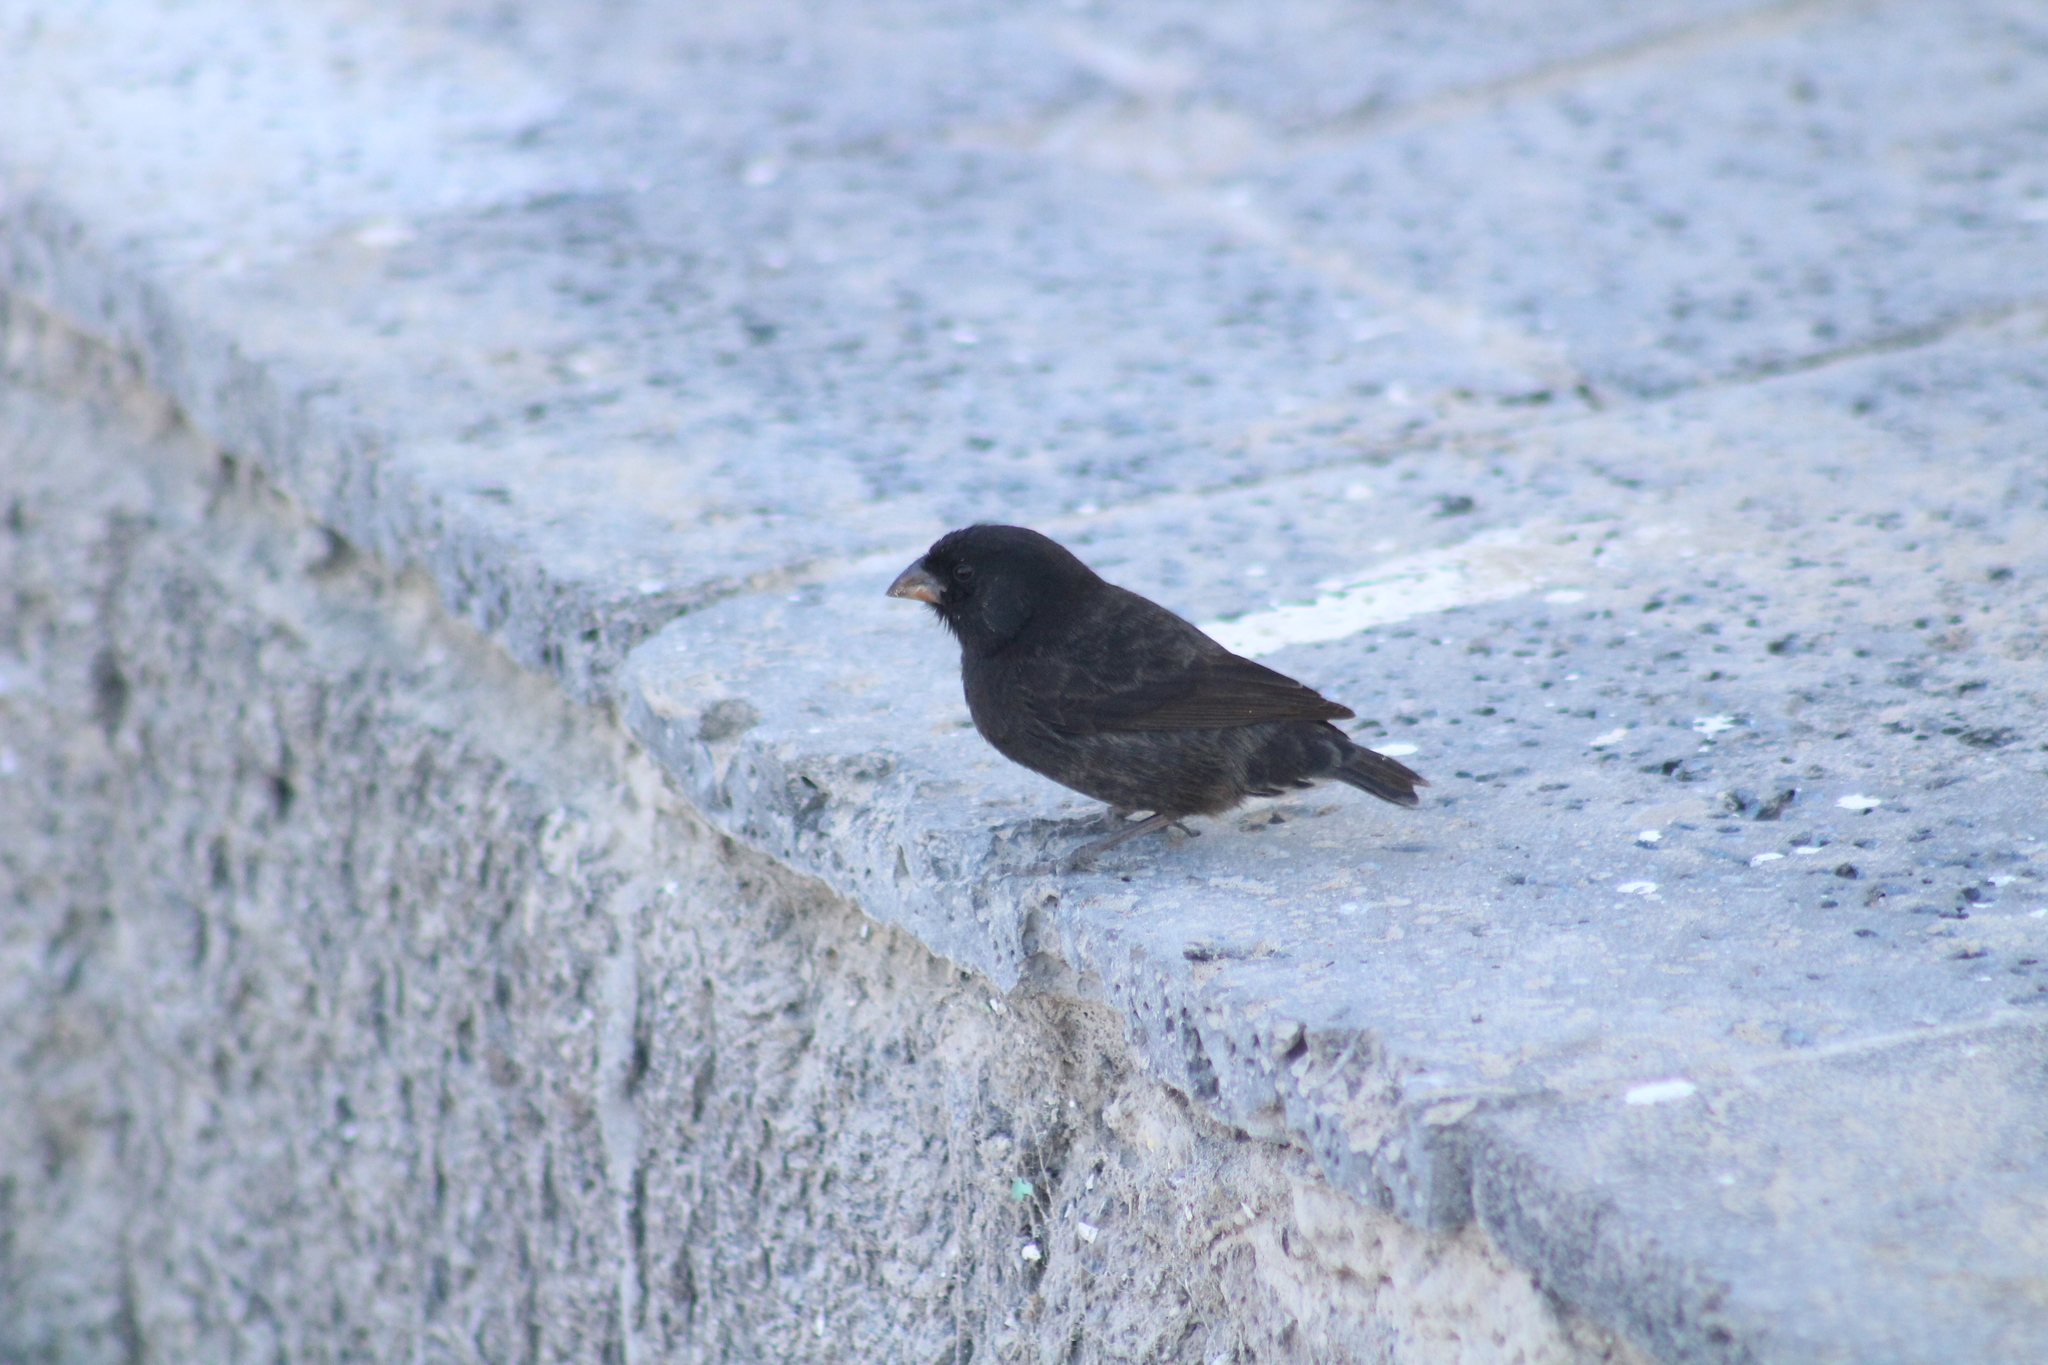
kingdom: Animalia
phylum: Chordata
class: Aves
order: Passeriformes
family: Thraupidae
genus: Geospiza
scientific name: Geospiza fortis
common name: Medium ground finch
